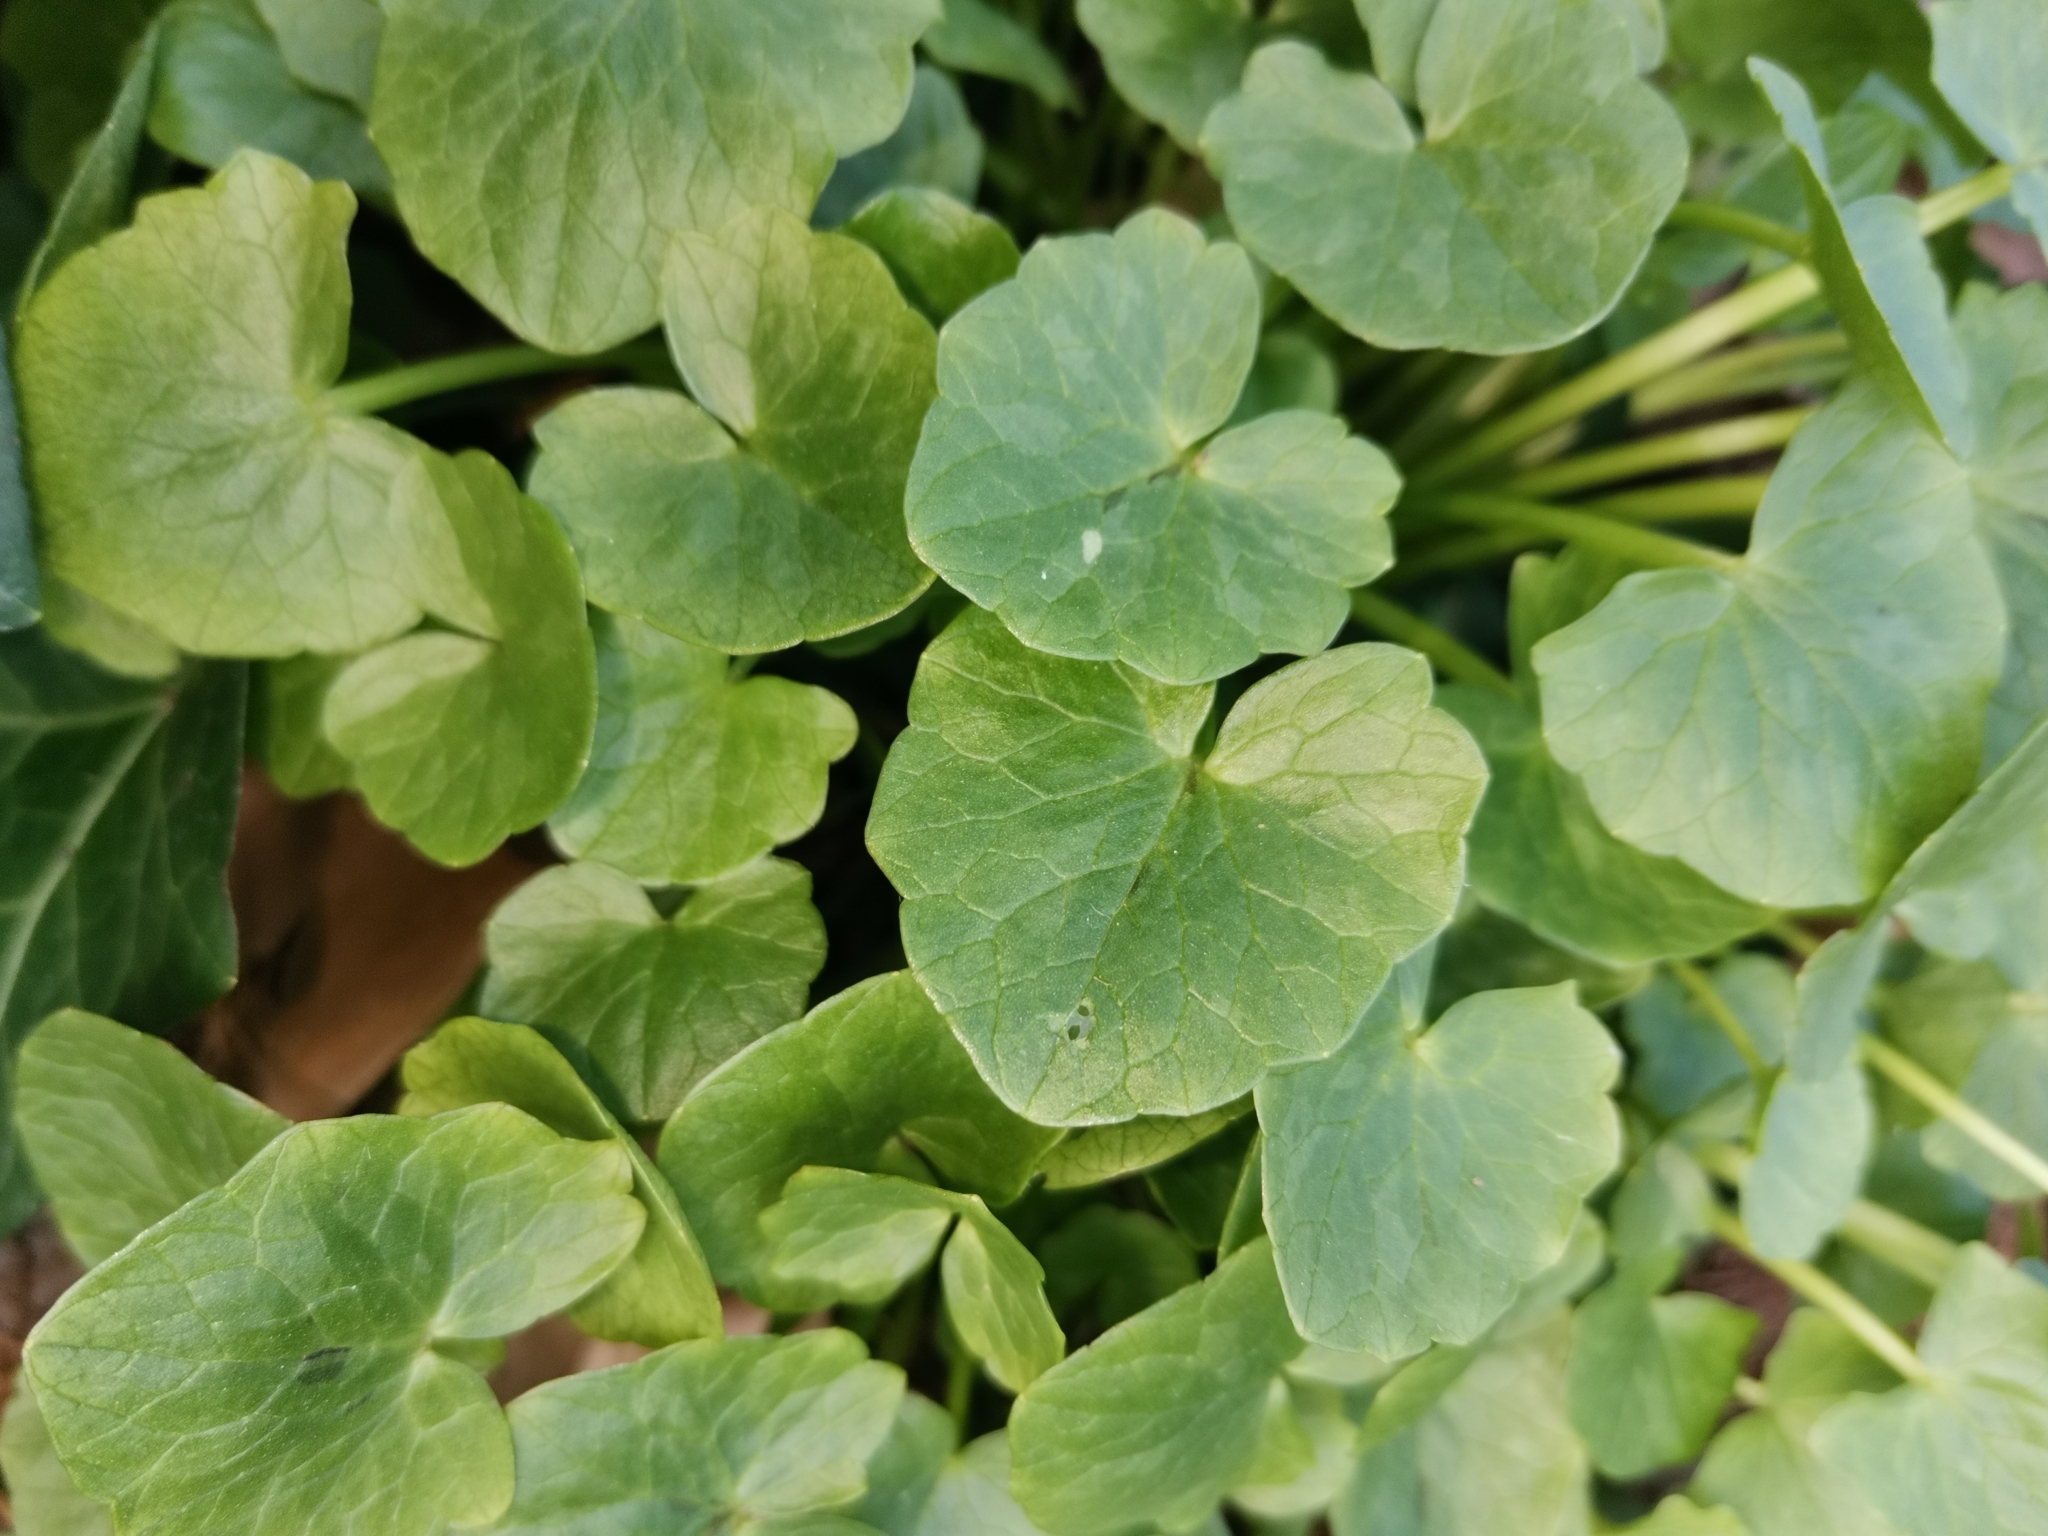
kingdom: Plantae
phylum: Tracheophyta
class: Magnoliopsida
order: Ranunculales
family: Ranunculaceae
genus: Ficaria
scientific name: Ficaria verna
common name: Lesser celandine
